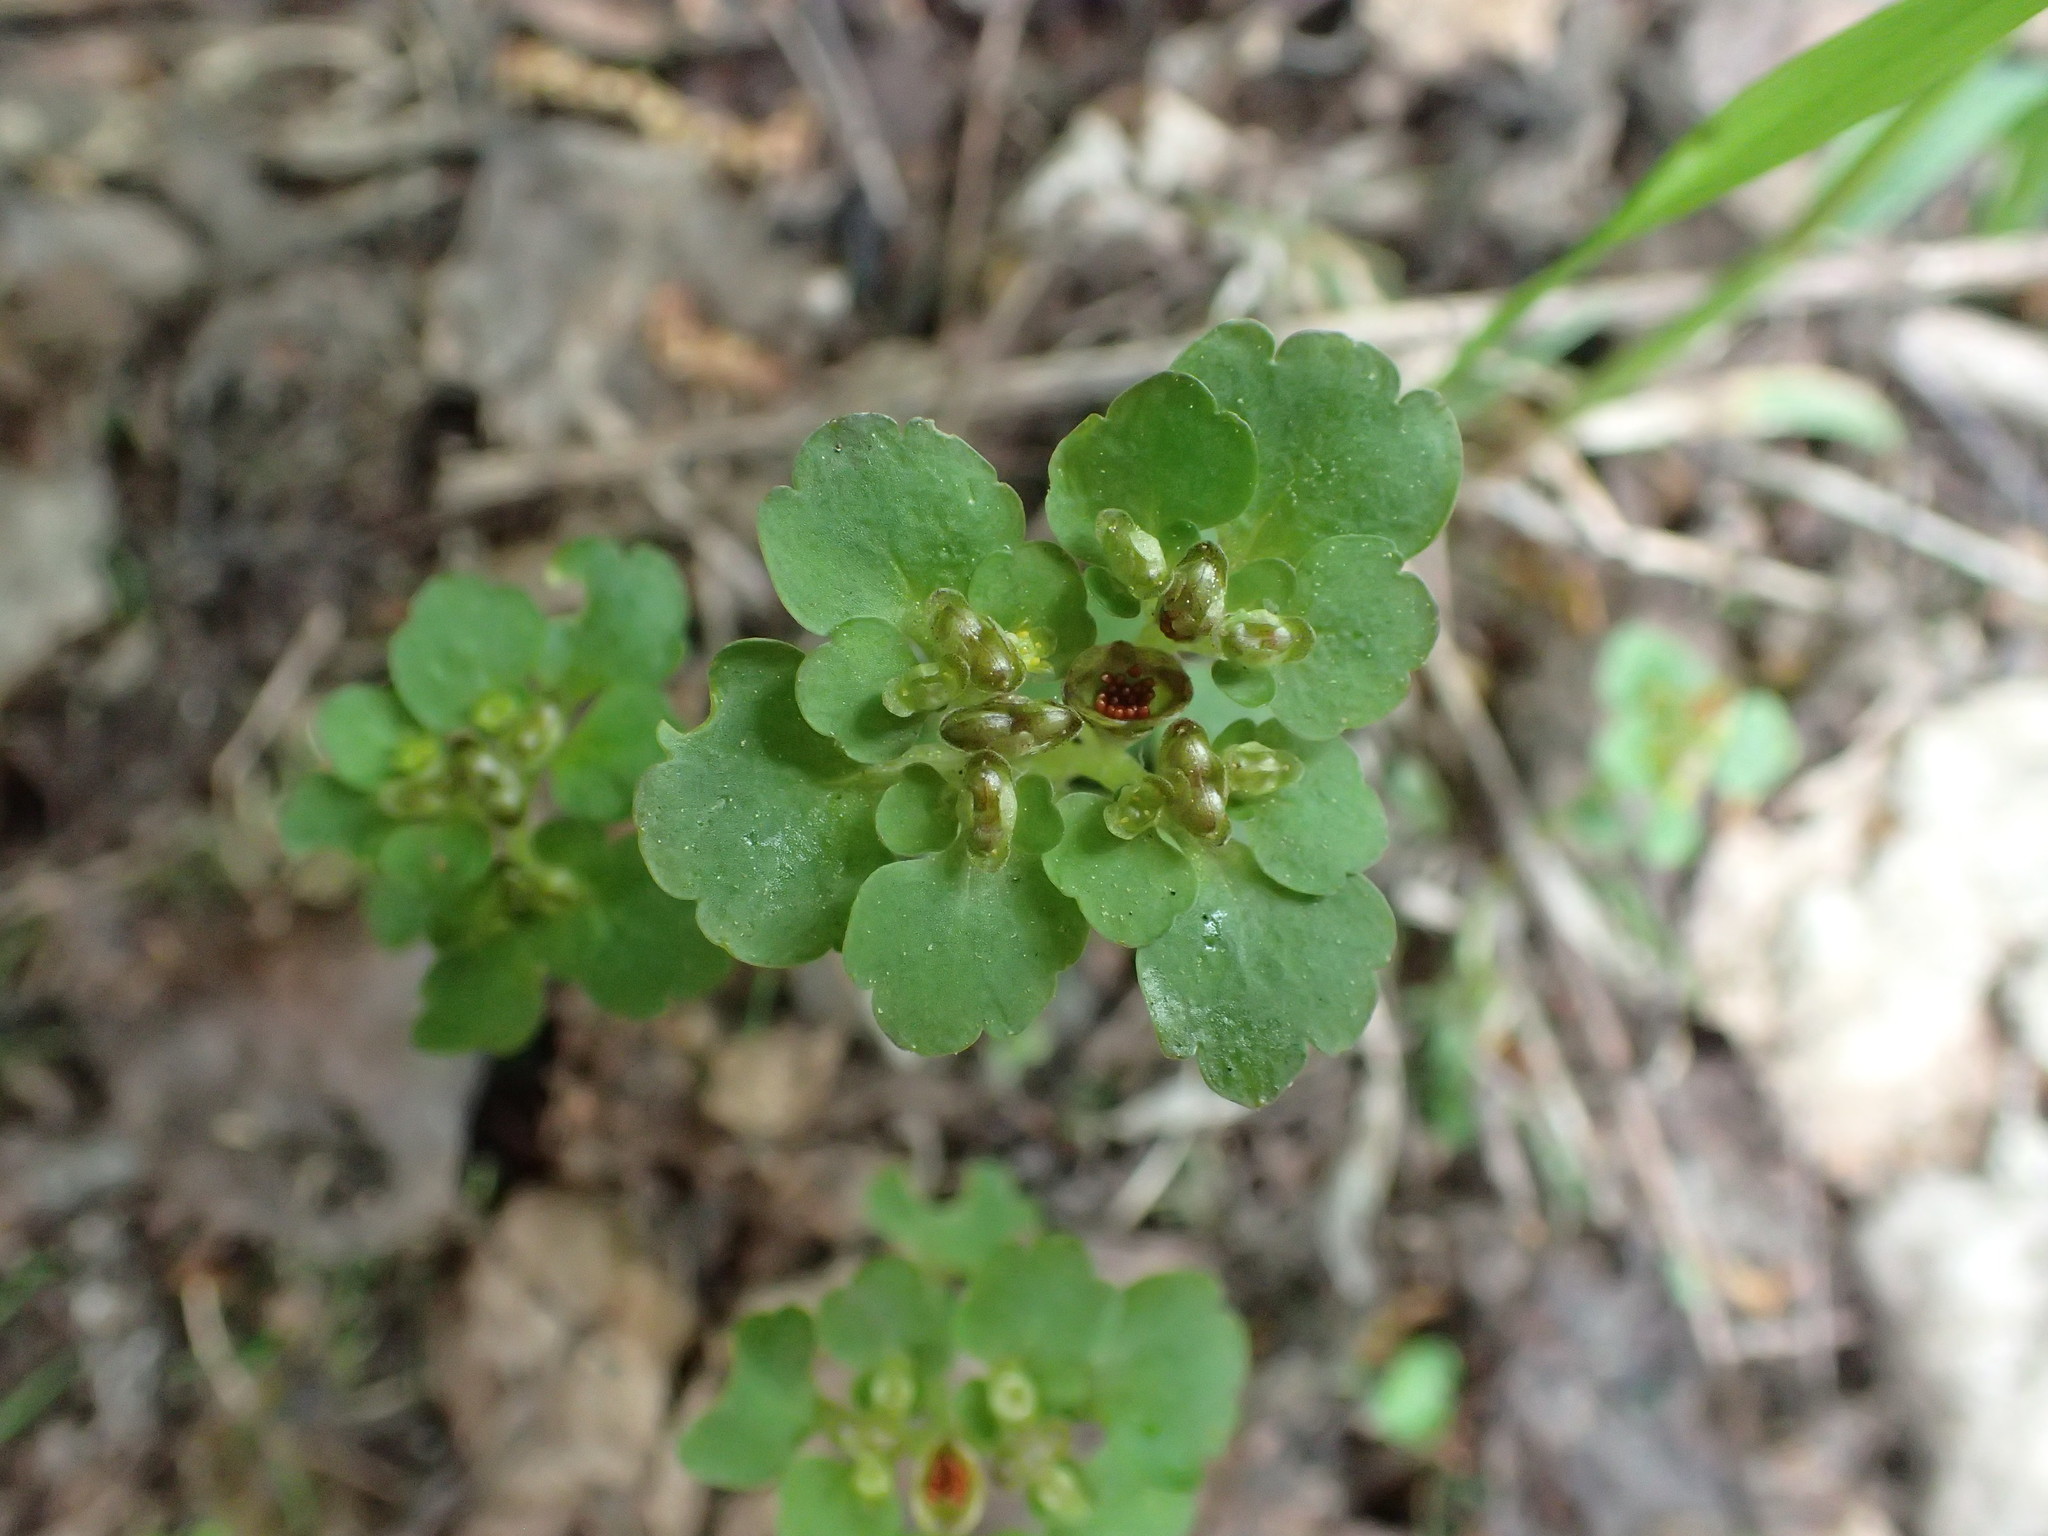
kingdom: Plantae
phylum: Tracheophyta
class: Magnoliopsida
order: Saxifragales
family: Saxifragaceae
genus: Chrysosplenium
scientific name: Chrysosplenium tetrandrum
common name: Green saxifrage
